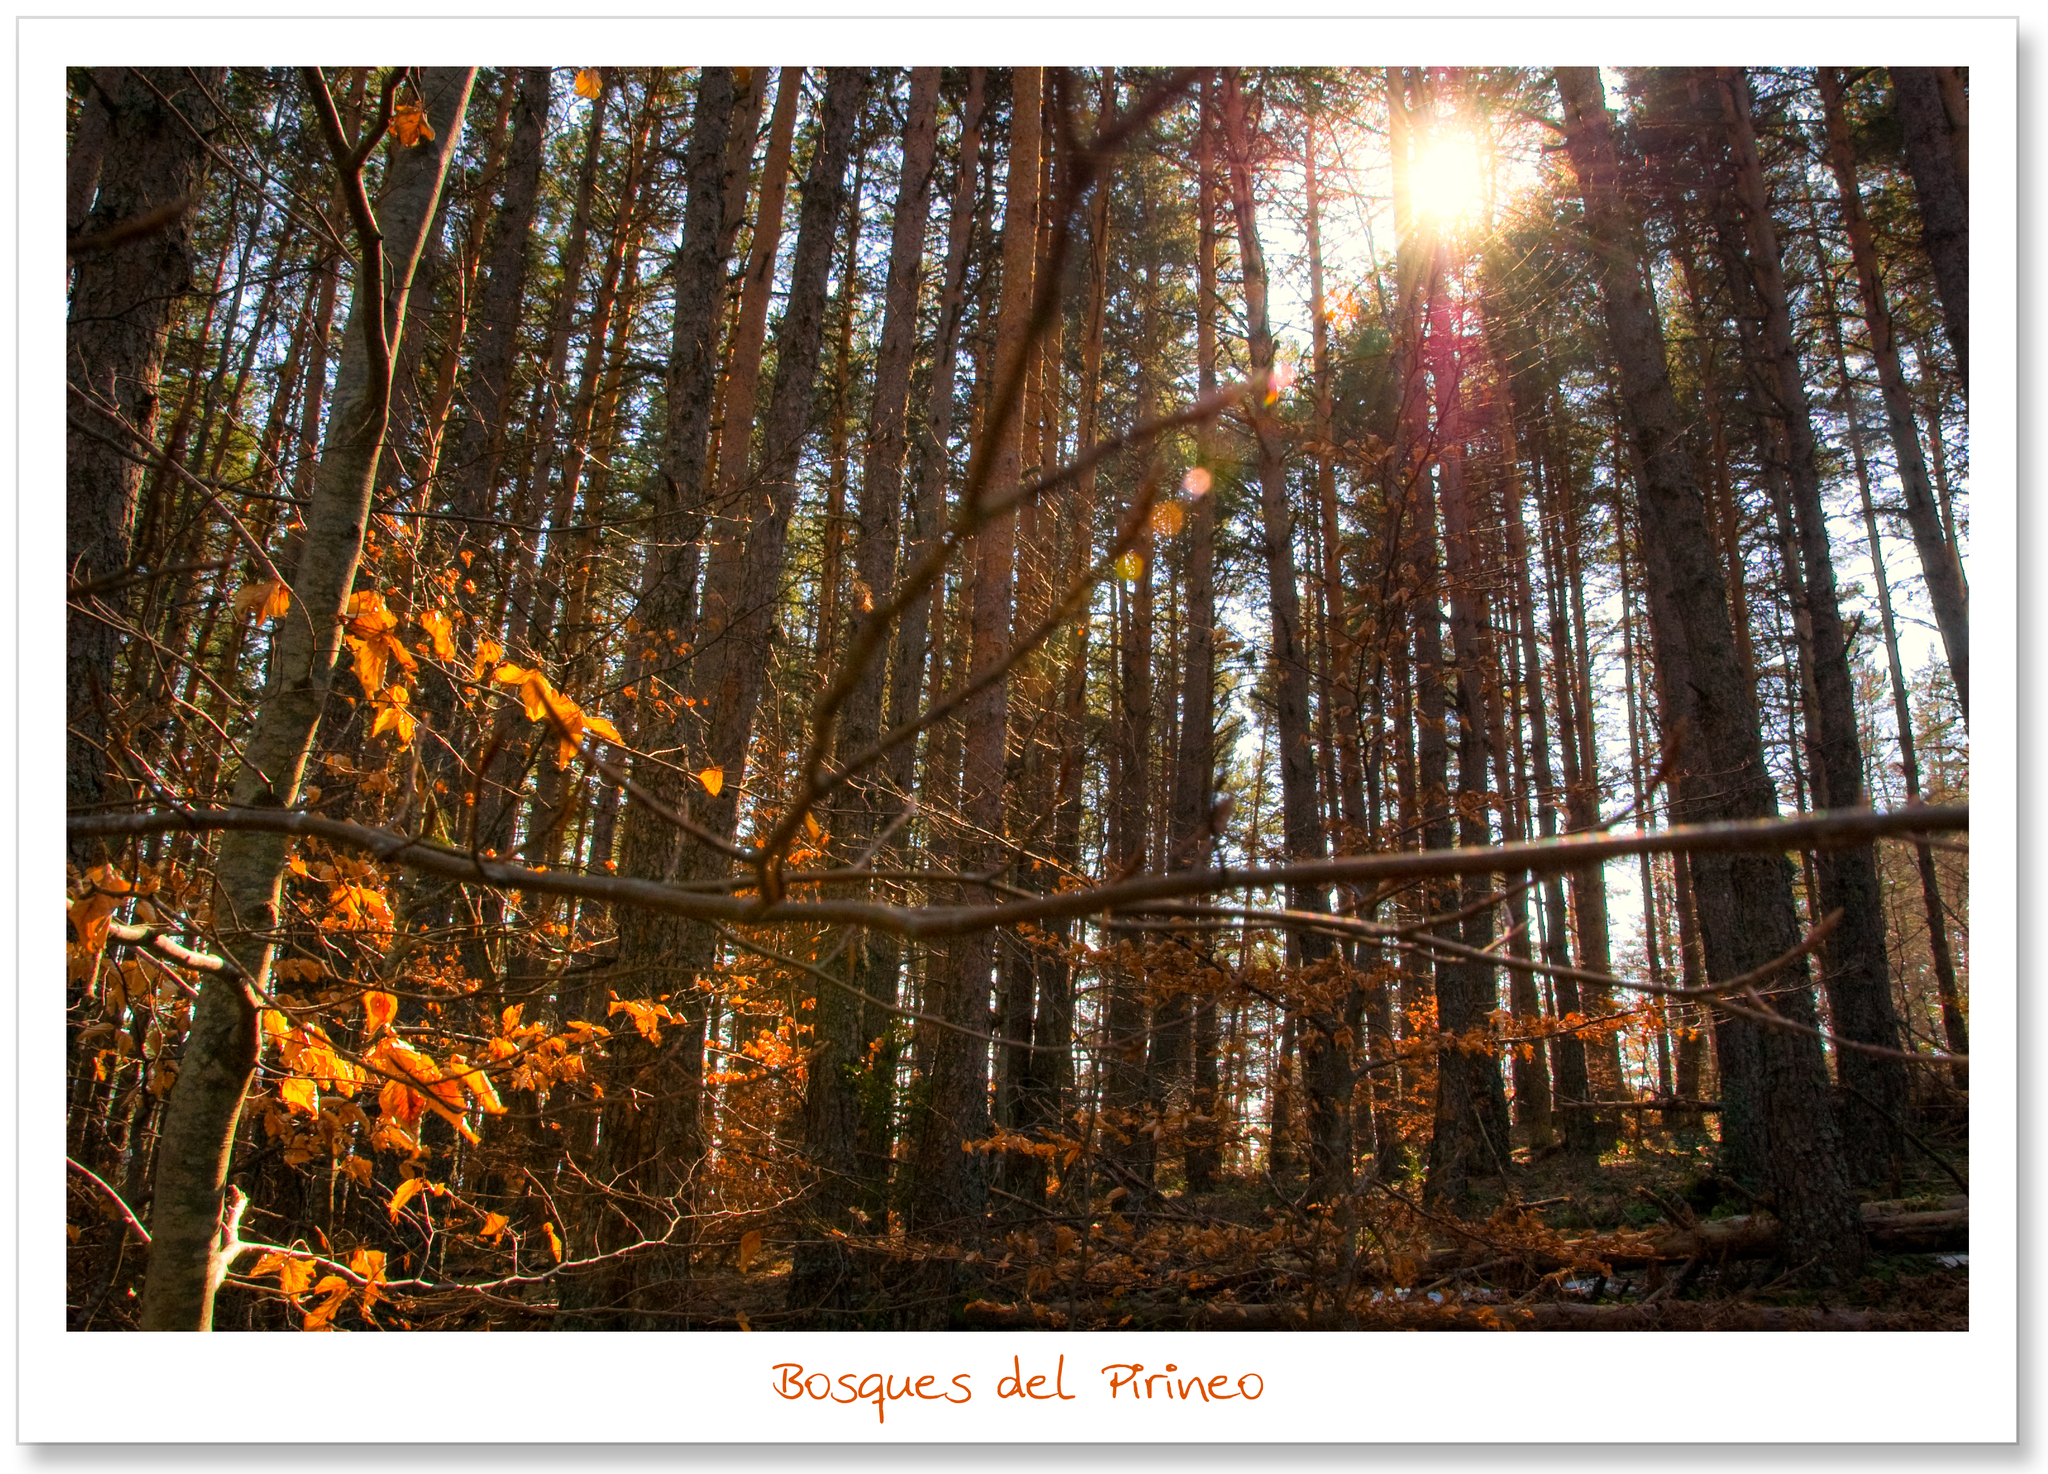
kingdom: Plantae
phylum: Tracheophyta
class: Magnoliopsida
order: Fagales
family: Fagaceae
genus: Fagus
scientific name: Fagus sylvatica
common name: Beech
